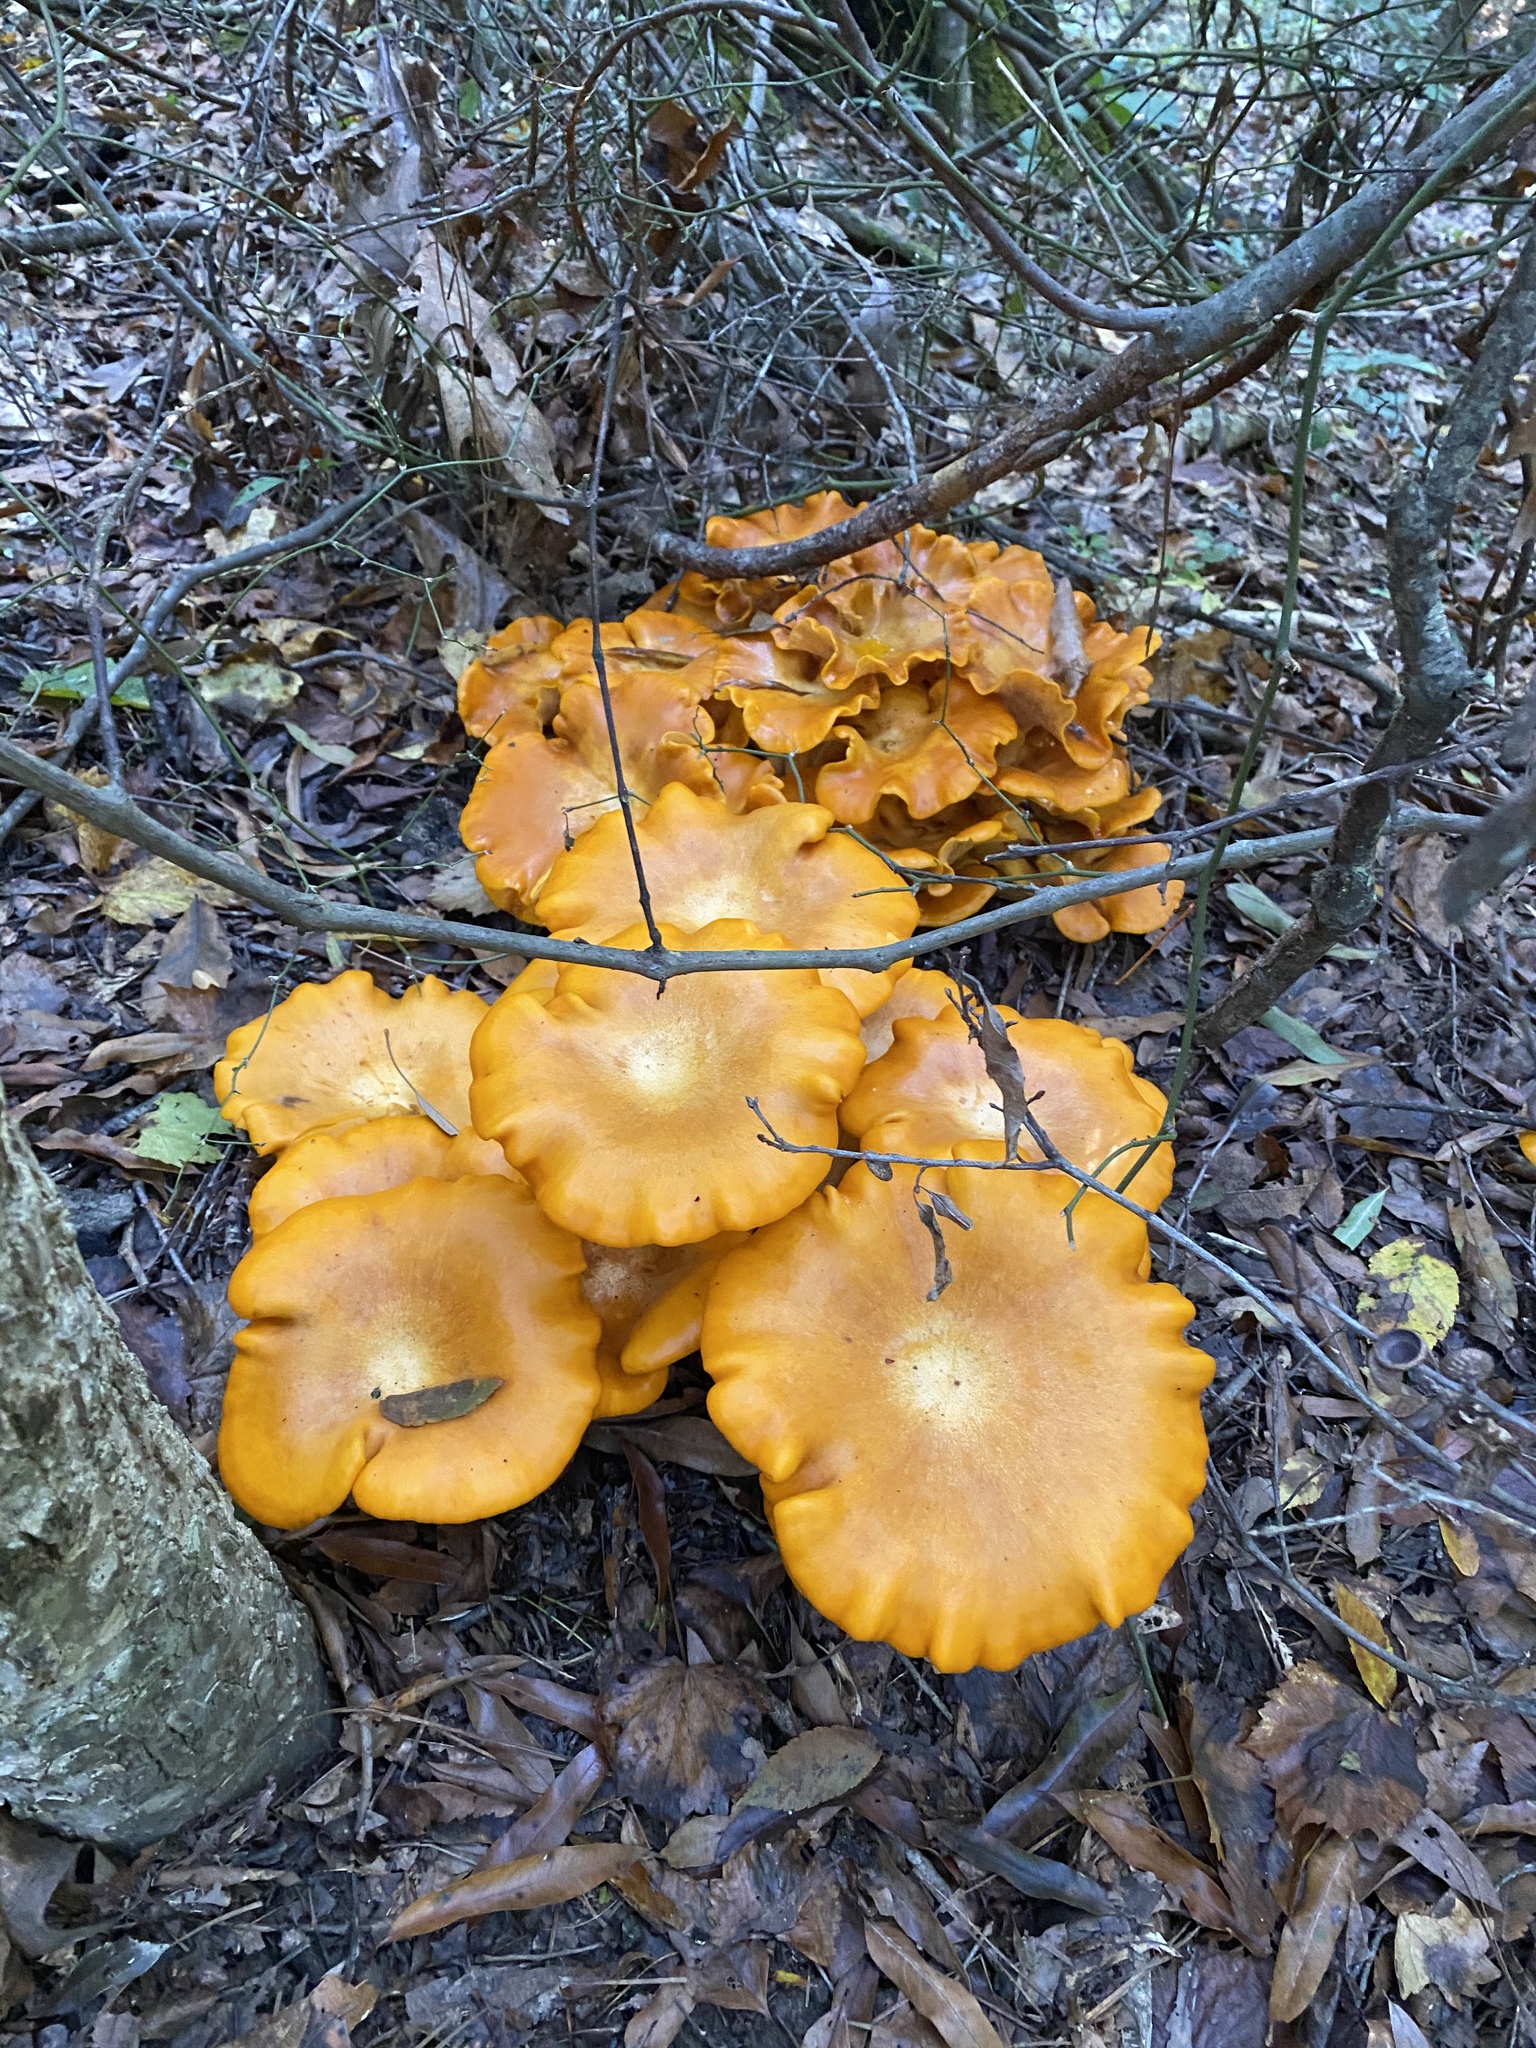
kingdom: Fungi
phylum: Basidiomycota
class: Agaricomycetes
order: Agaricales
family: Omphalotaceae
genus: Omphalotus
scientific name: Omphalotus illudens
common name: Jack o lantern
